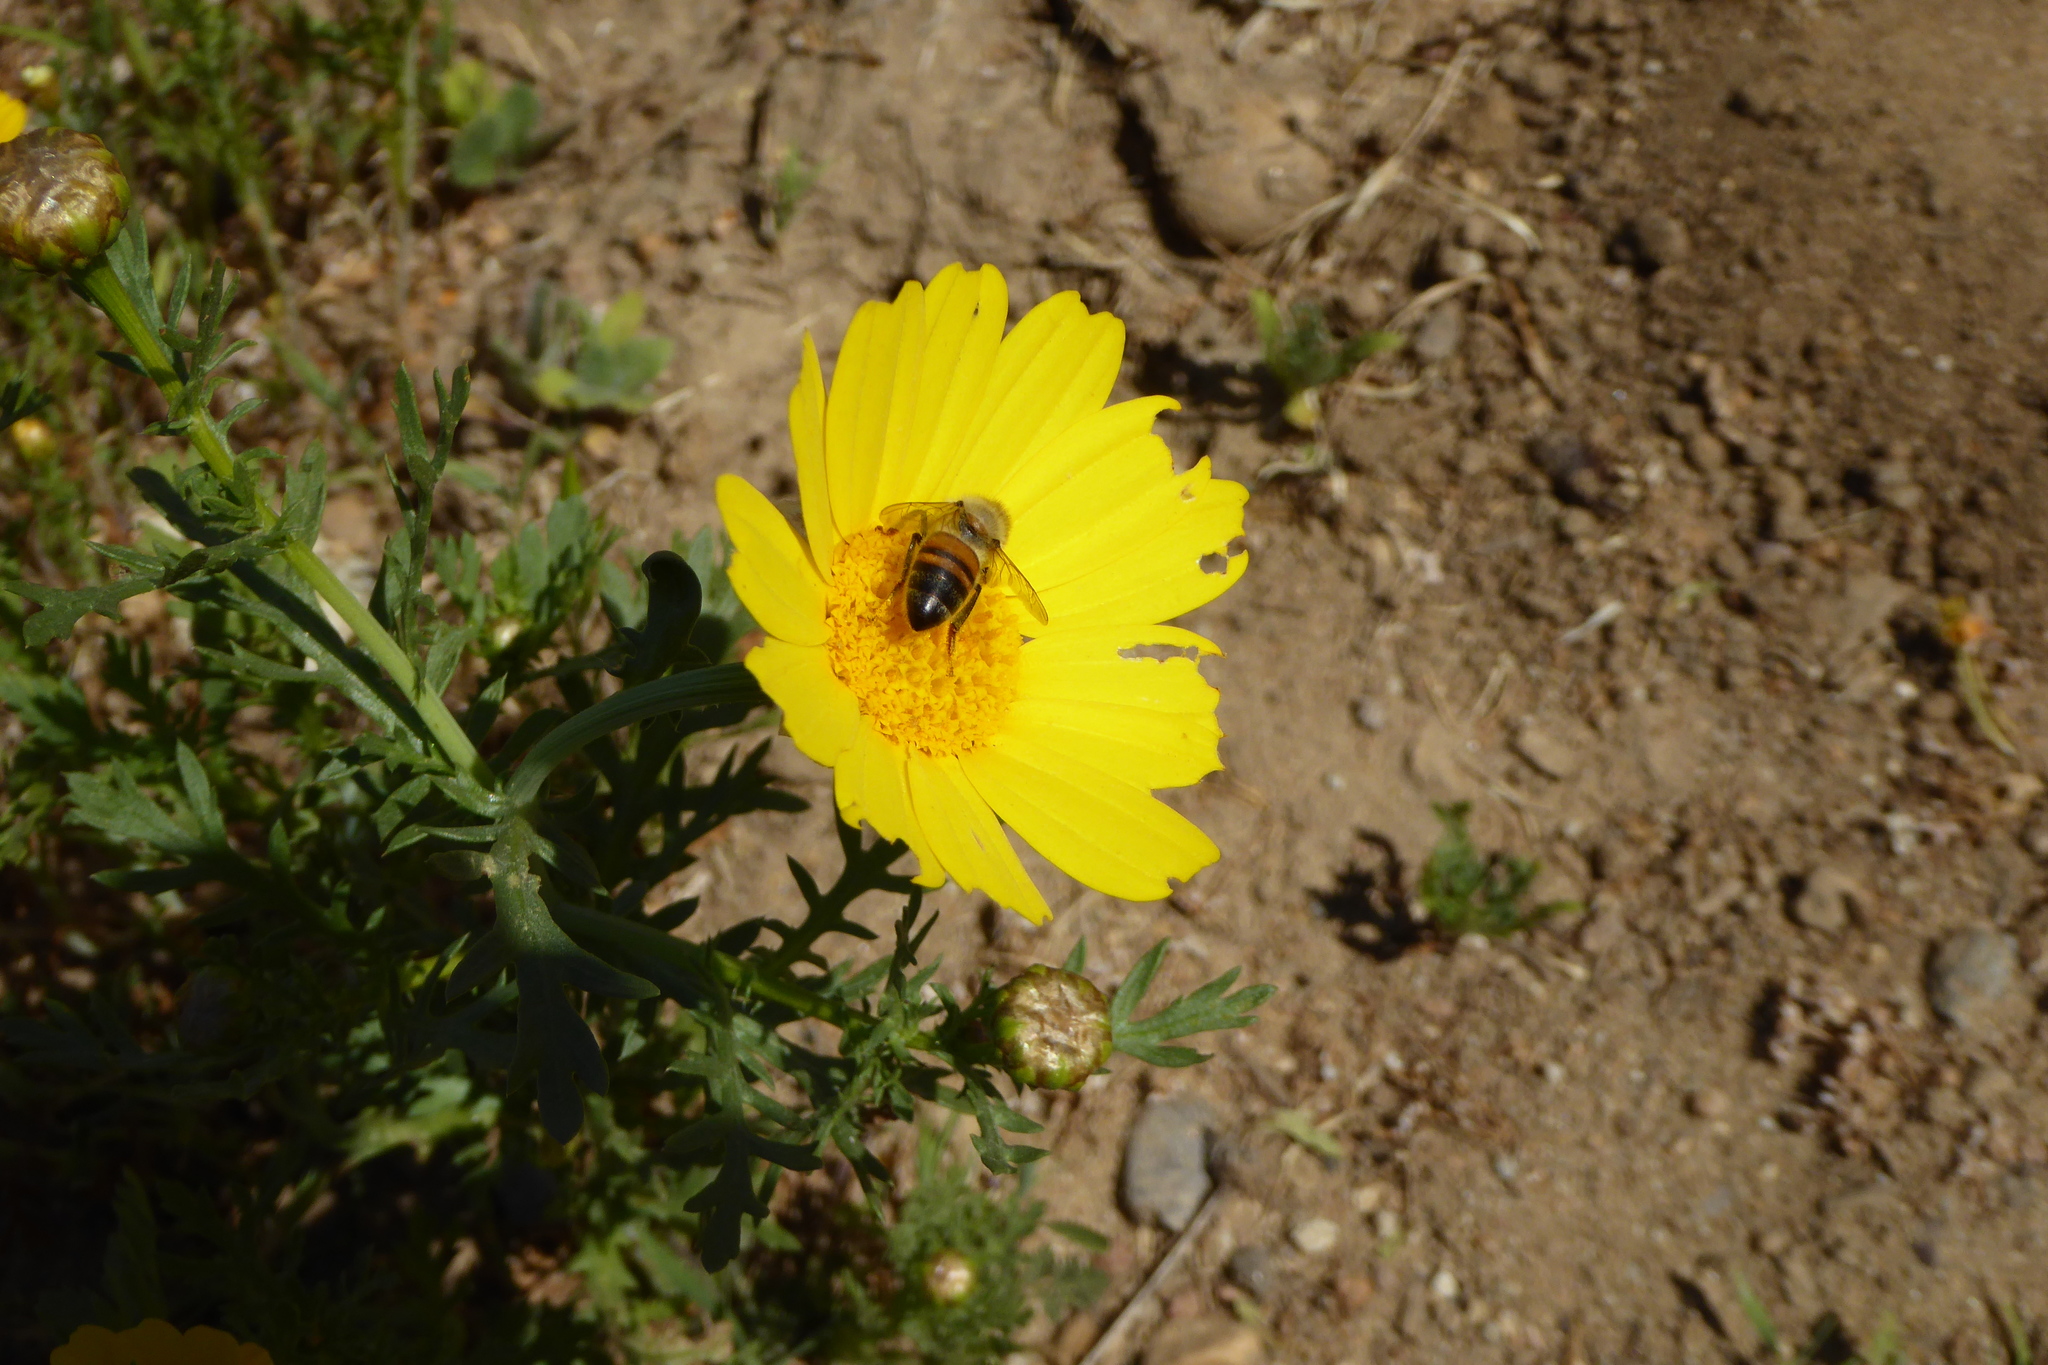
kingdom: Animalia
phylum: Arthropoda
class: Insecta
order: Hymenoptera
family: Apidae
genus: Apis
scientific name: Apis mellifera
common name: Honey bee
